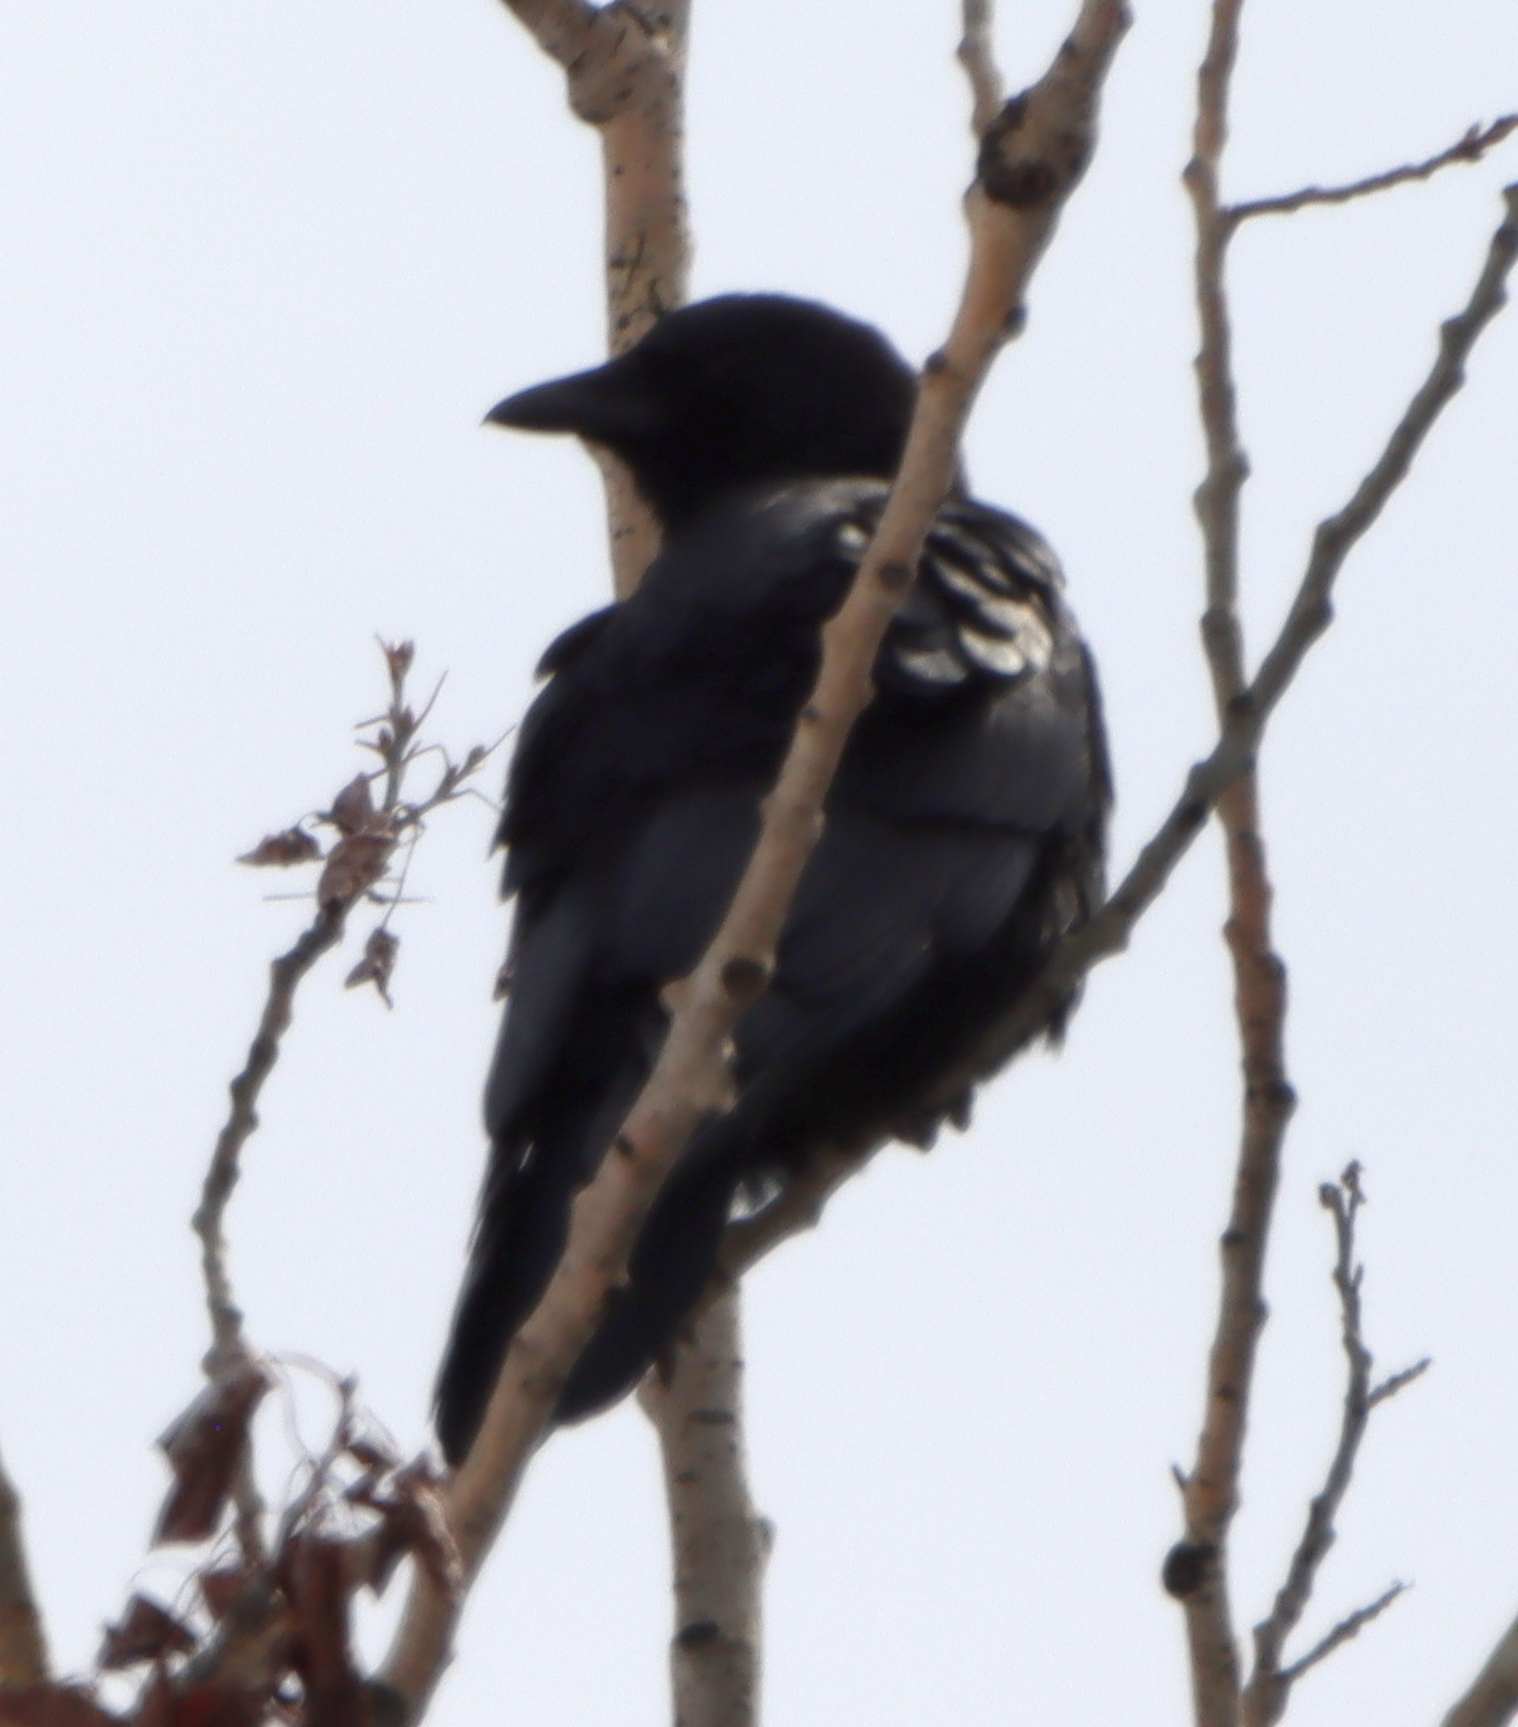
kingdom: Animalia
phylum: Chordata
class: Aves
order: Passeriformes
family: Corvidae
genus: Corvus
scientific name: Corvus brachyrhynchos
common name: American crow
